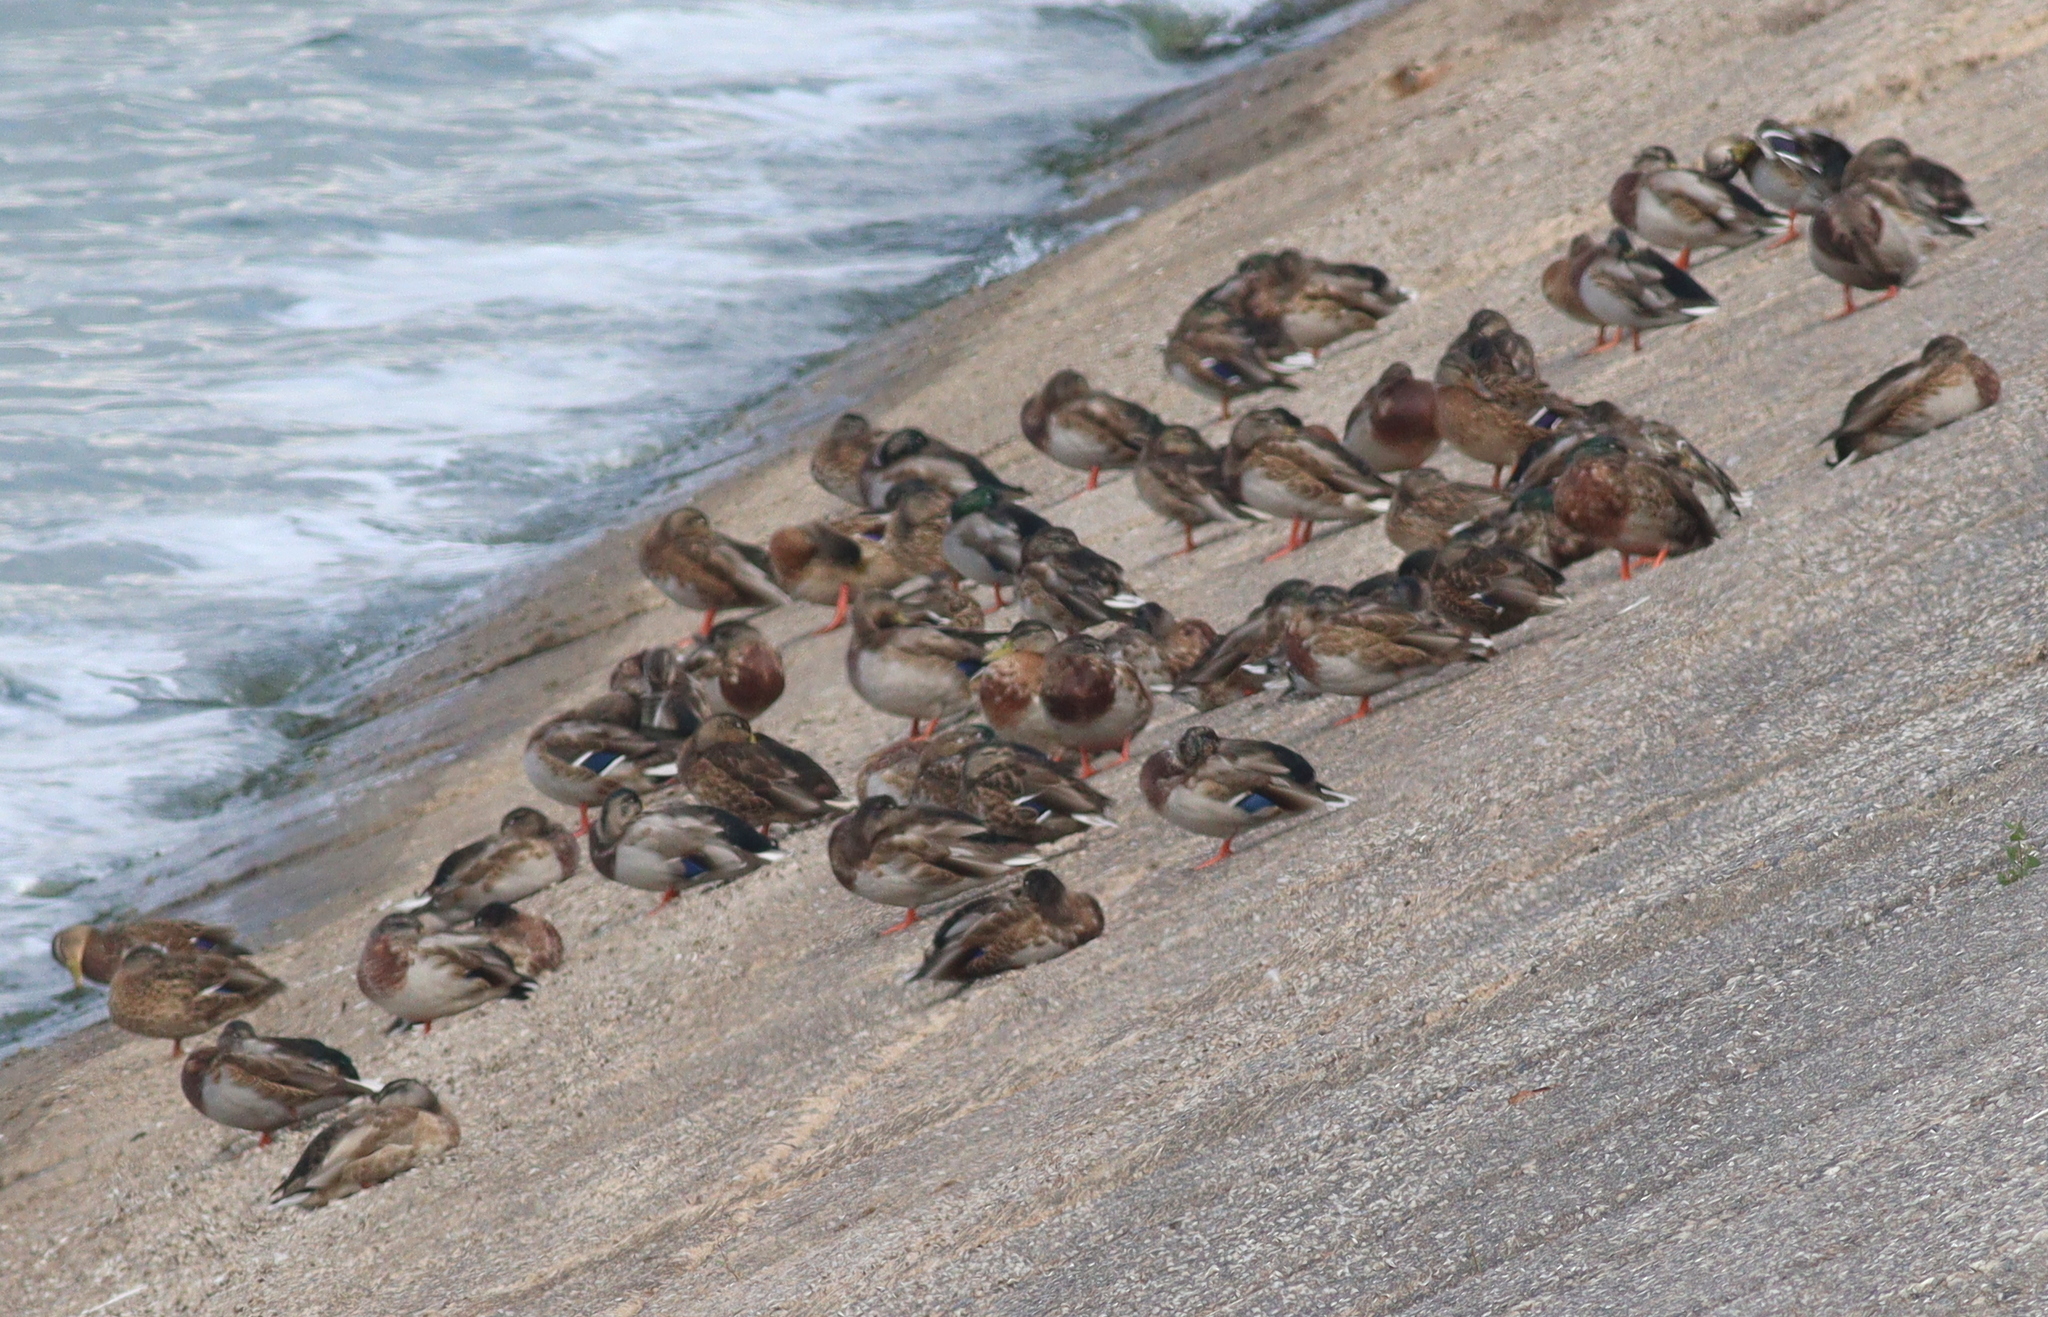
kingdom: Animalia
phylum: Chordata
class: Aves
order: Anseriformes
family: Anatidae
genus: Anas
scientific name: Anas platyrhynchos
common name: Mallard
